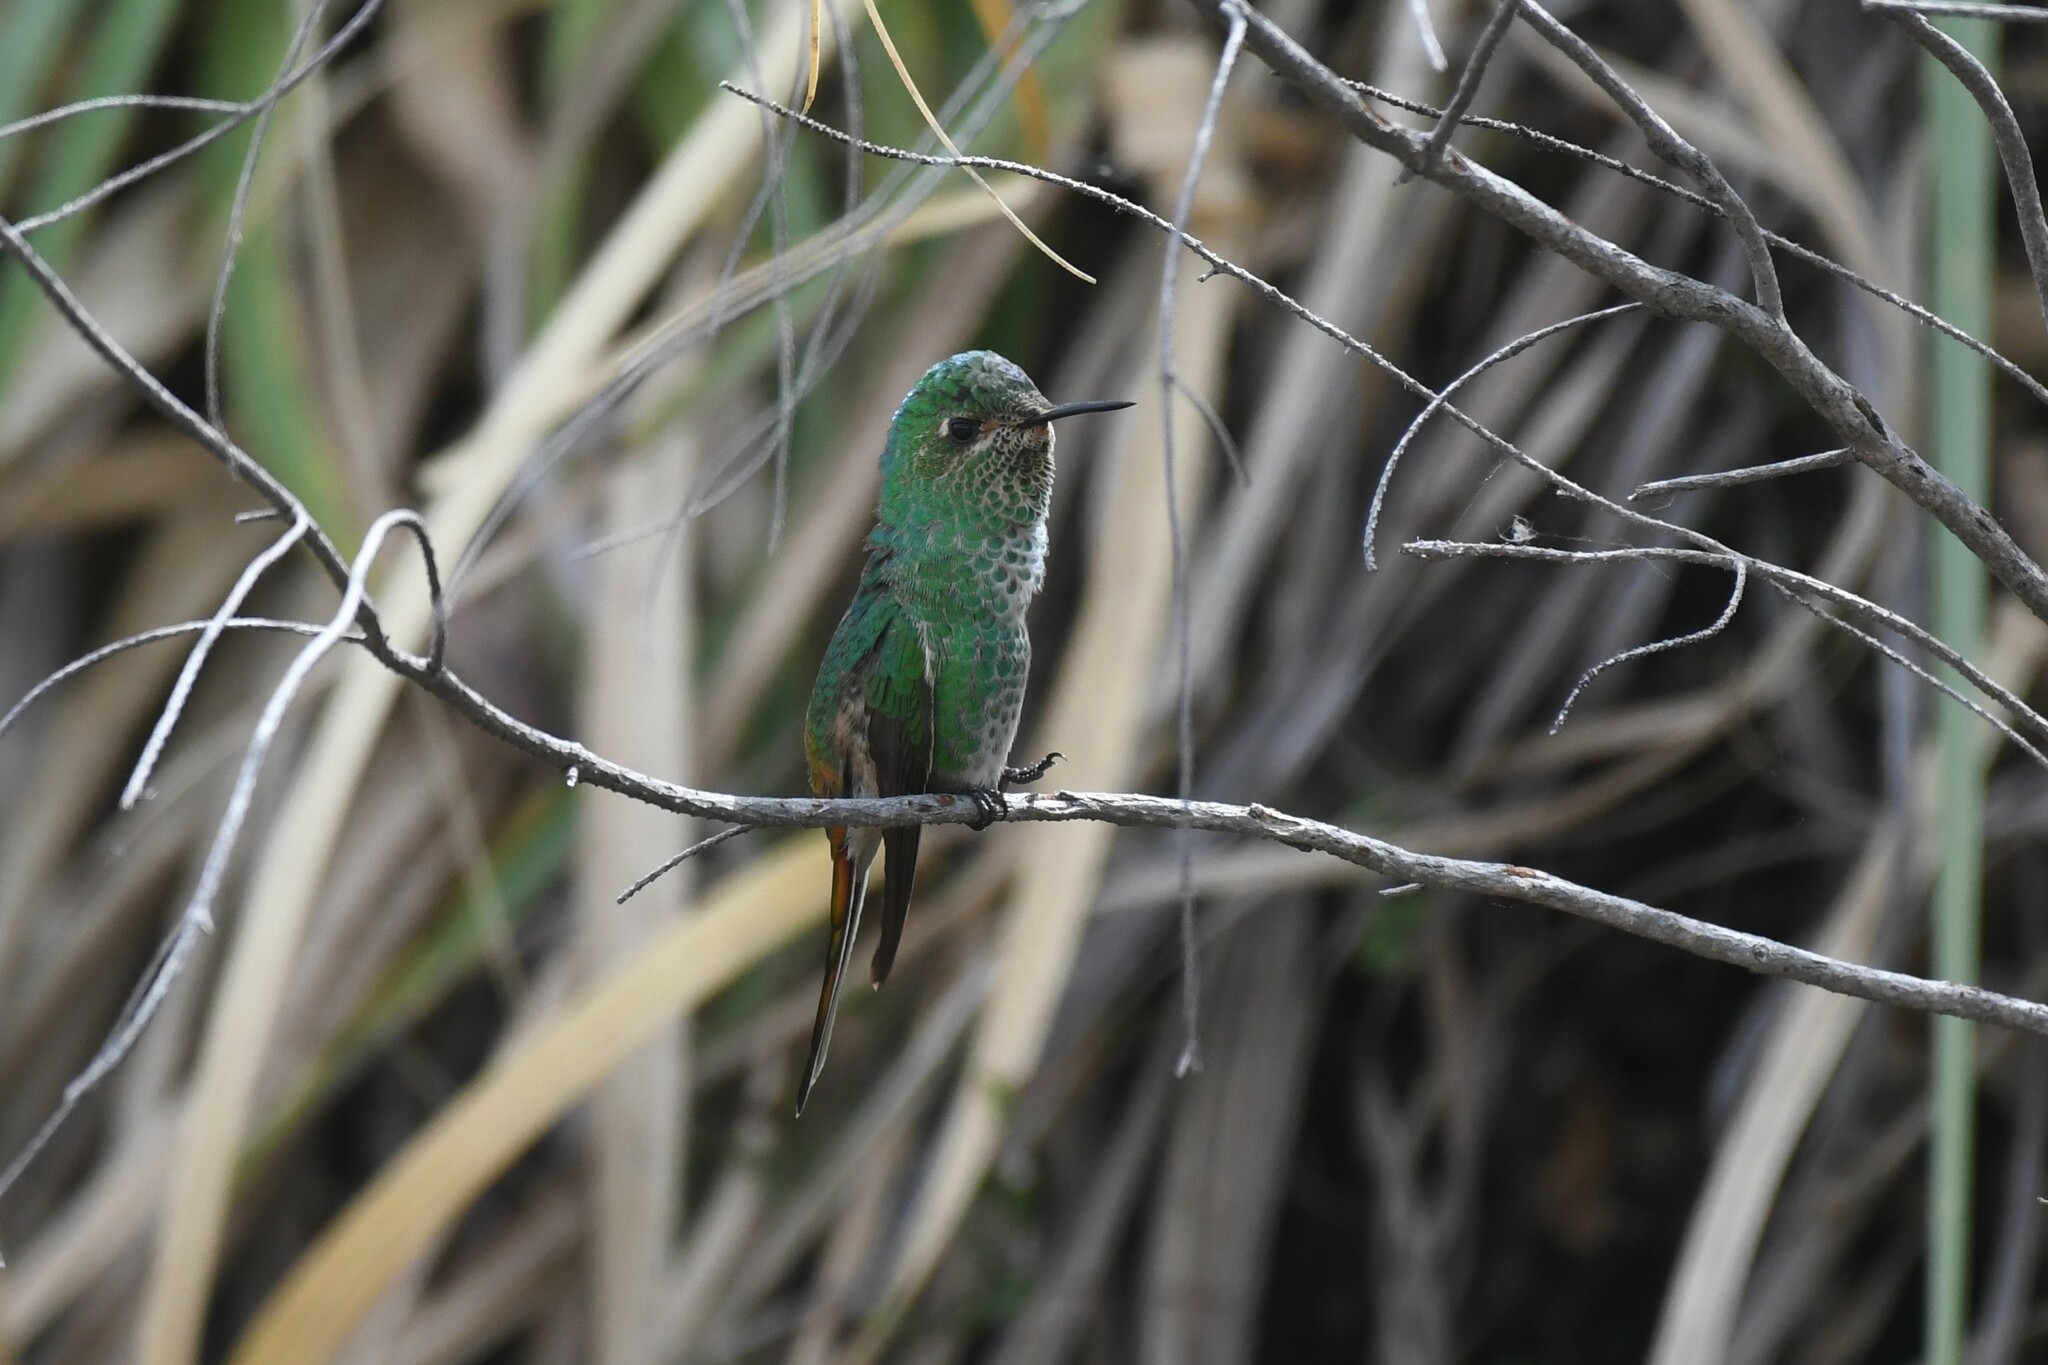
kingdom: Animalia
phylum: Chordata
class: Aves
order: Apodiformes
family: Trochilidae
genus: Sappho
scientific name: Sappho sparganurus
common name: Red-tailed comet
